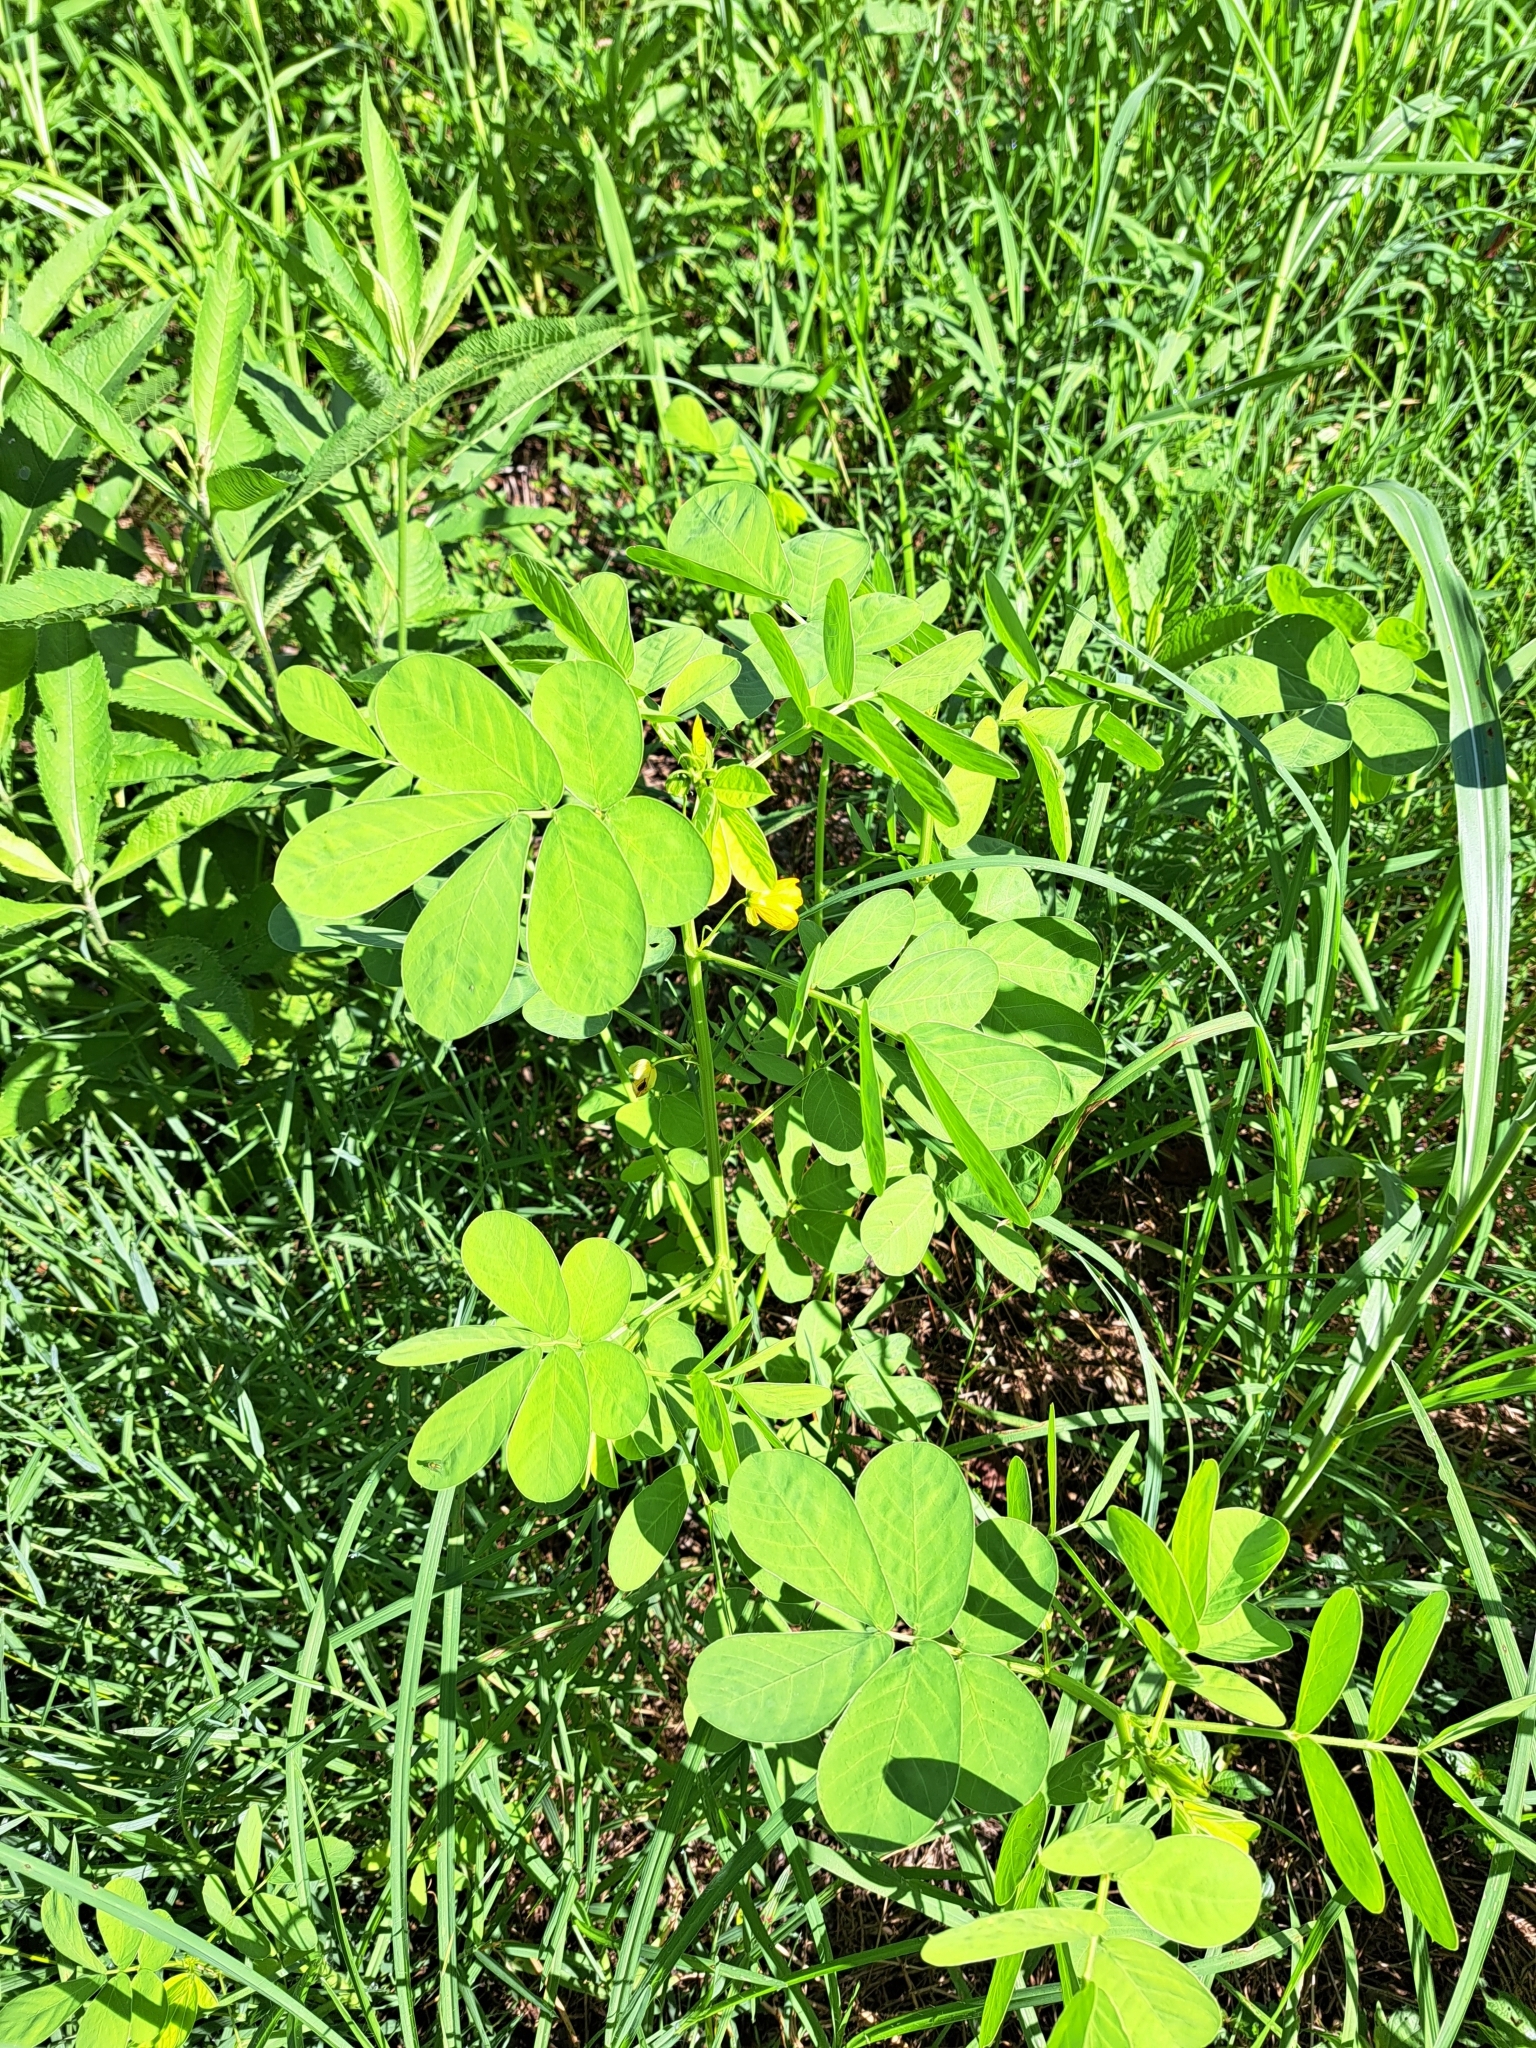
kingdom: Plantae
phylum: Tracheophyta
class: Magnoliopsida
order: Fabales
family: Fabaceae
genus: Senna
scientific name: Senna obtusifolia
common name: Java-bean
